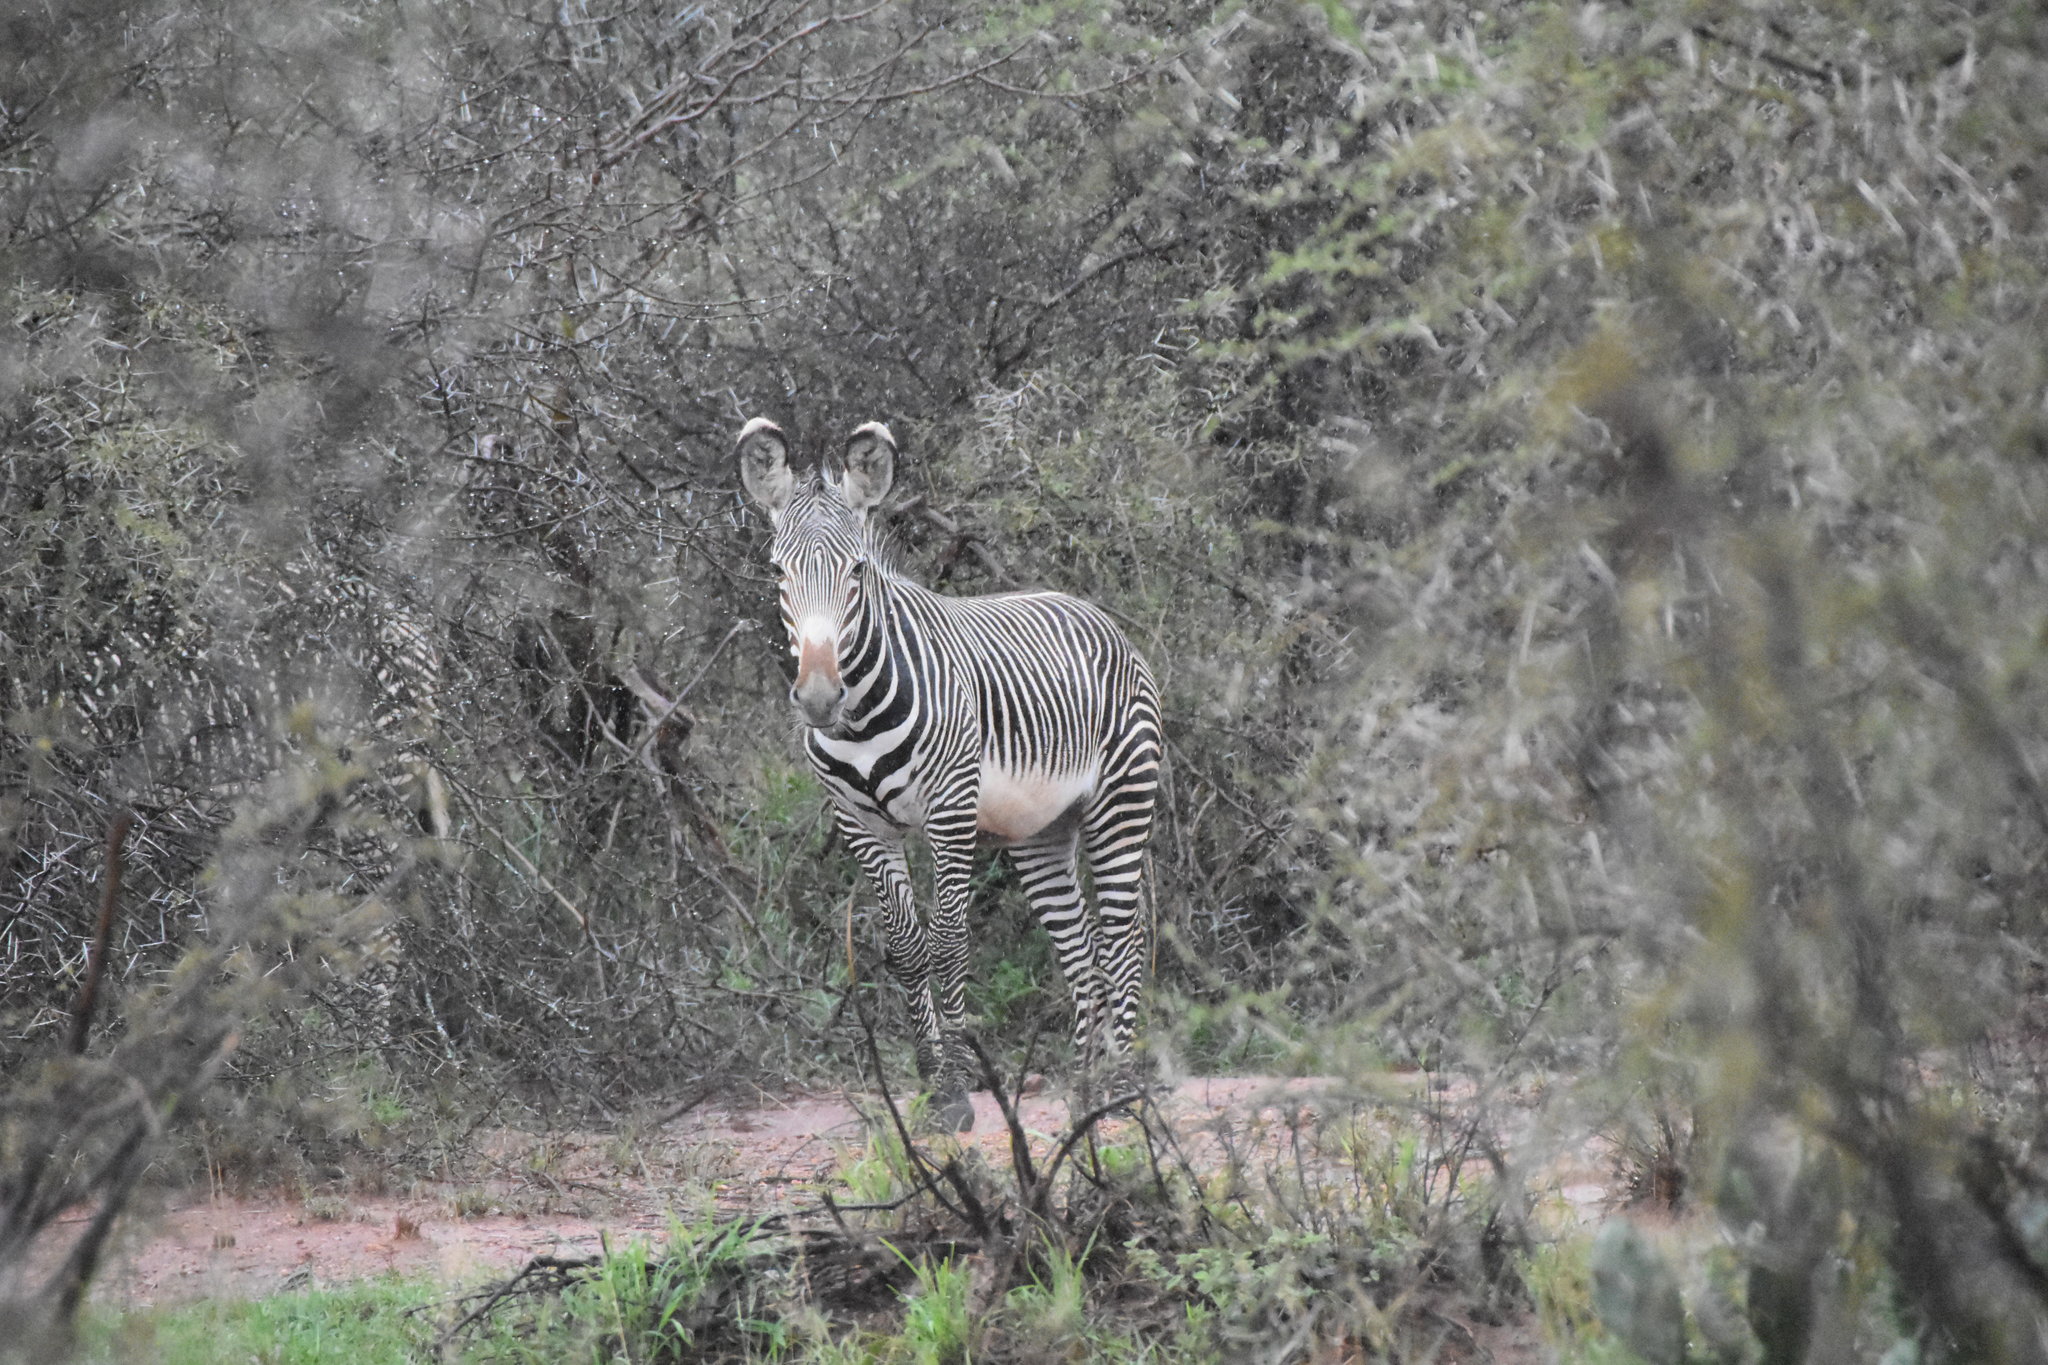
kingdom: Animalia
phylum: Chordata
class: Mammalia
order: Perissodactyla
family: Equidae
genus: Equus
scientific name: Equus grevyi
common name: Grevy's zebra
